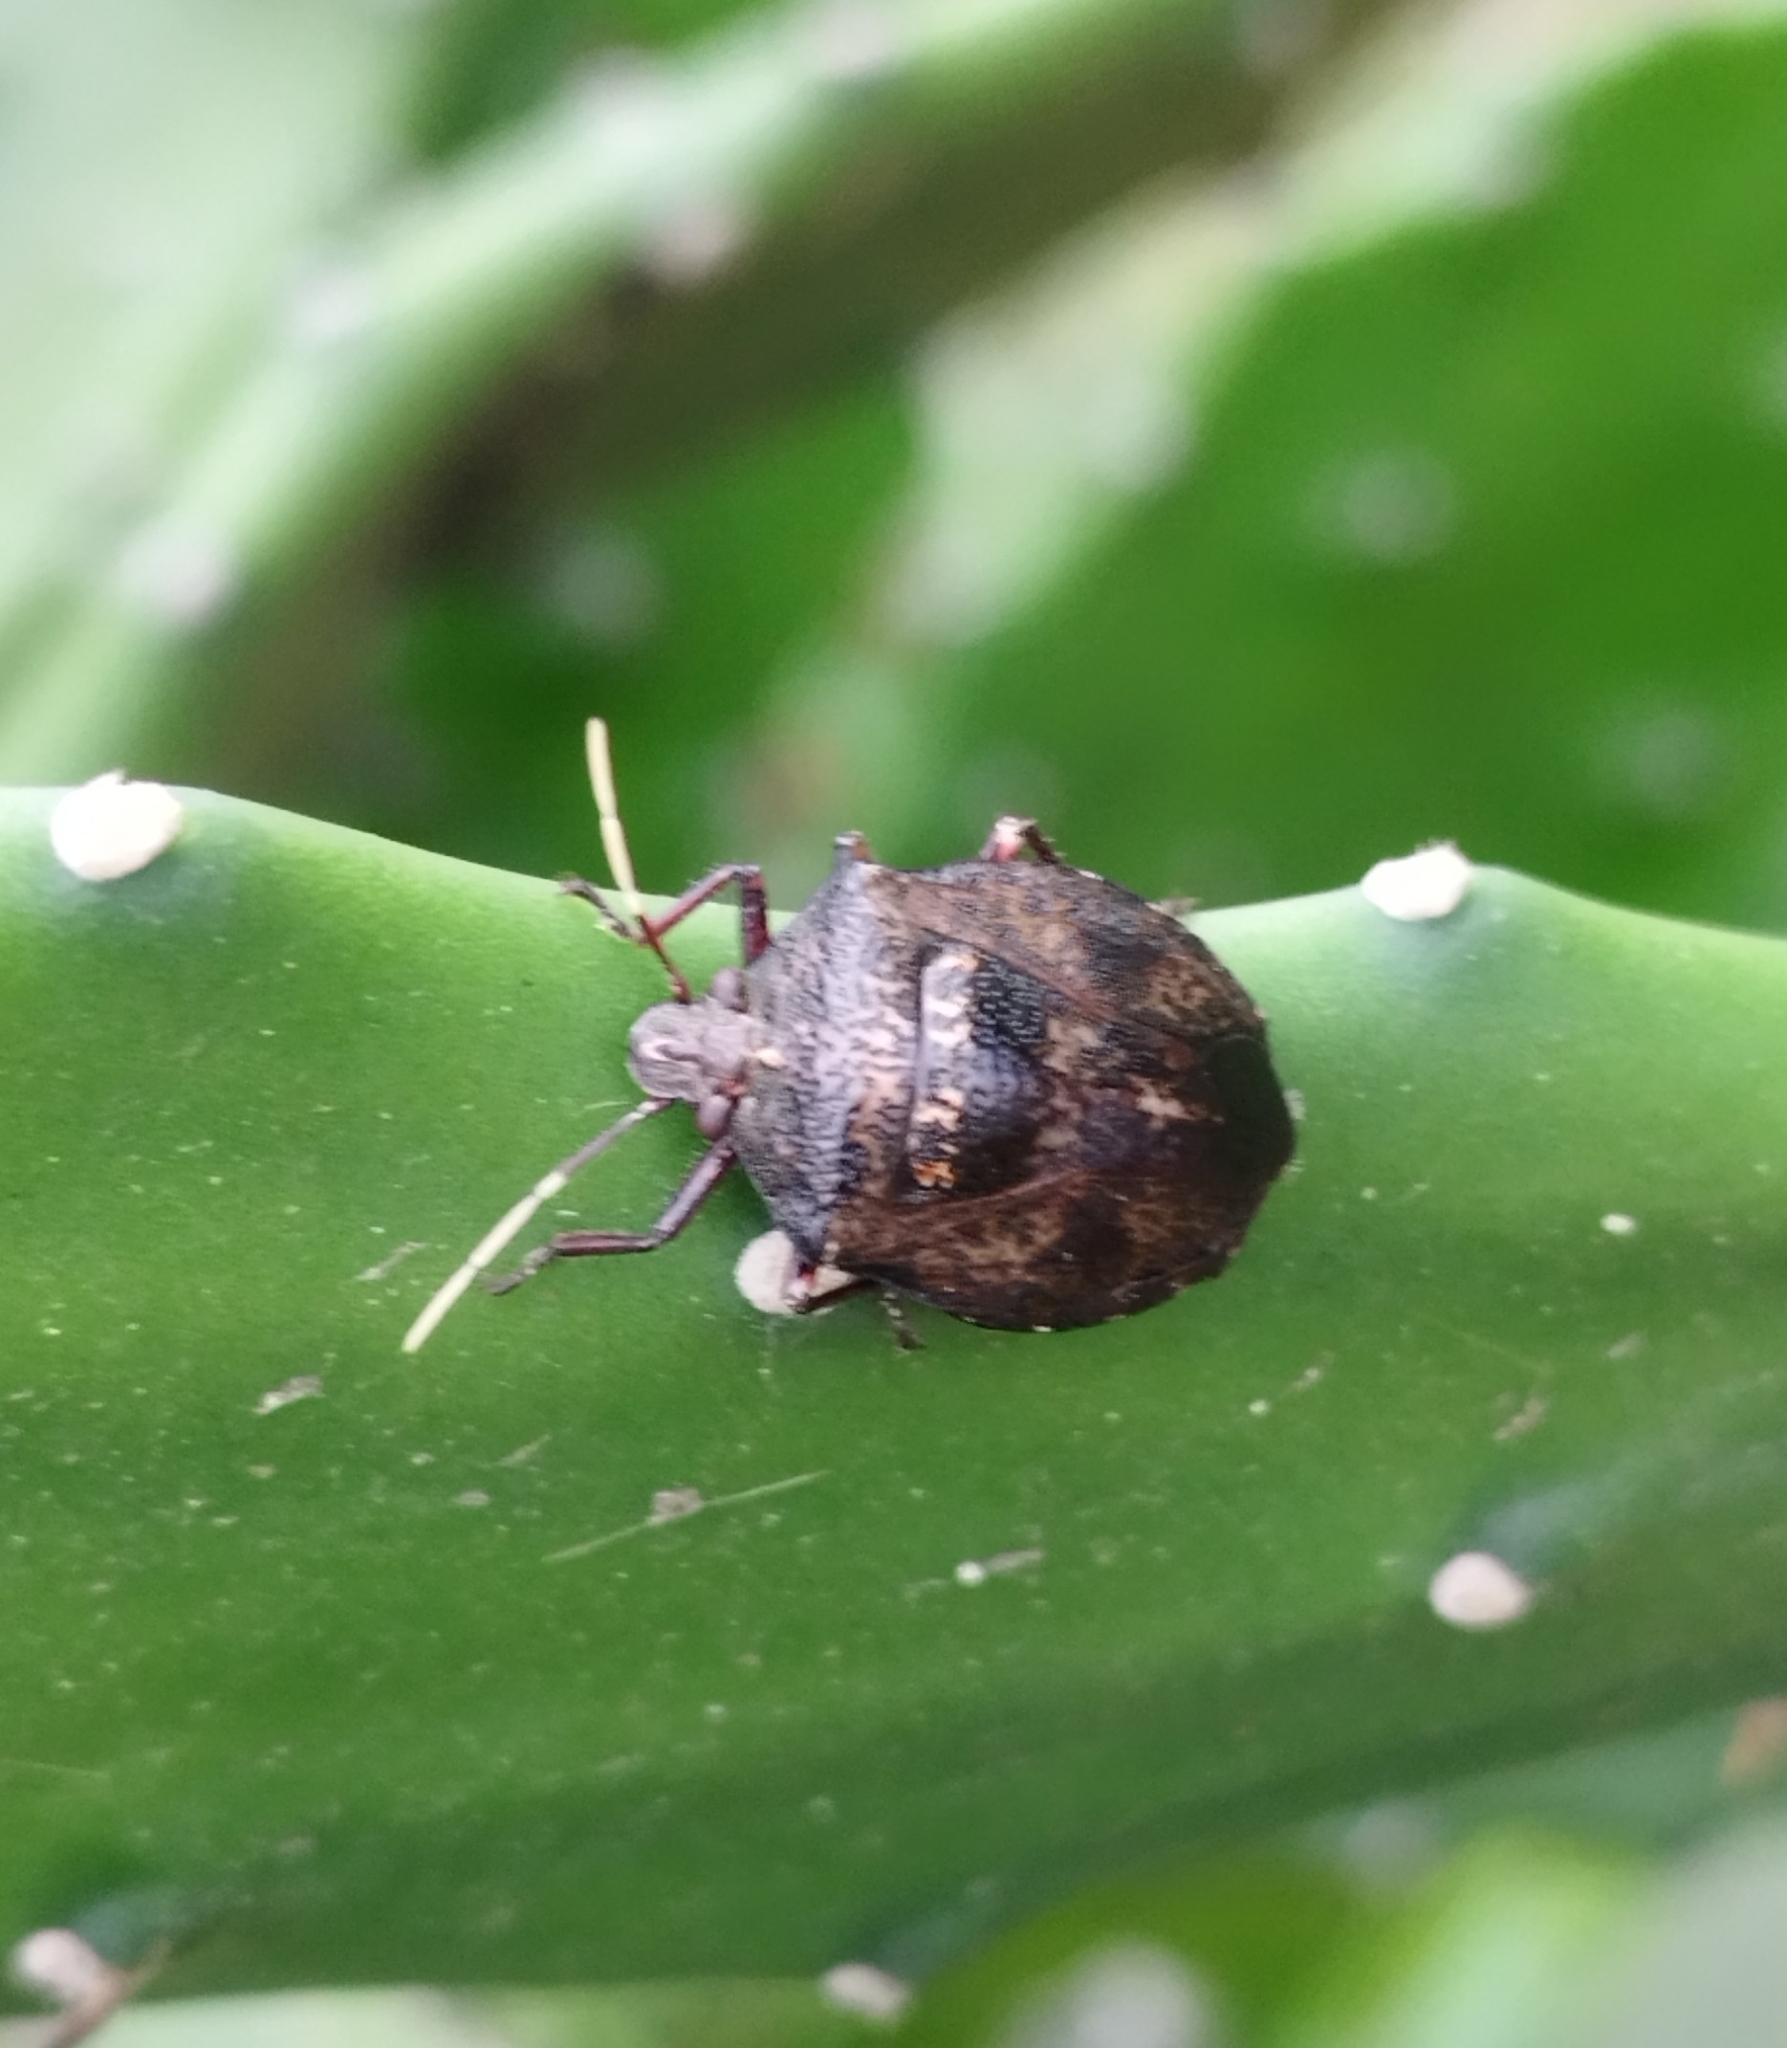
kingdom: Animalia
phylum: Arthropoda
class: Insecta
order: Hemiptera
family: Pentatomidae
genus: Antiteuchus
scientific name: Antiteuchus mixtus
